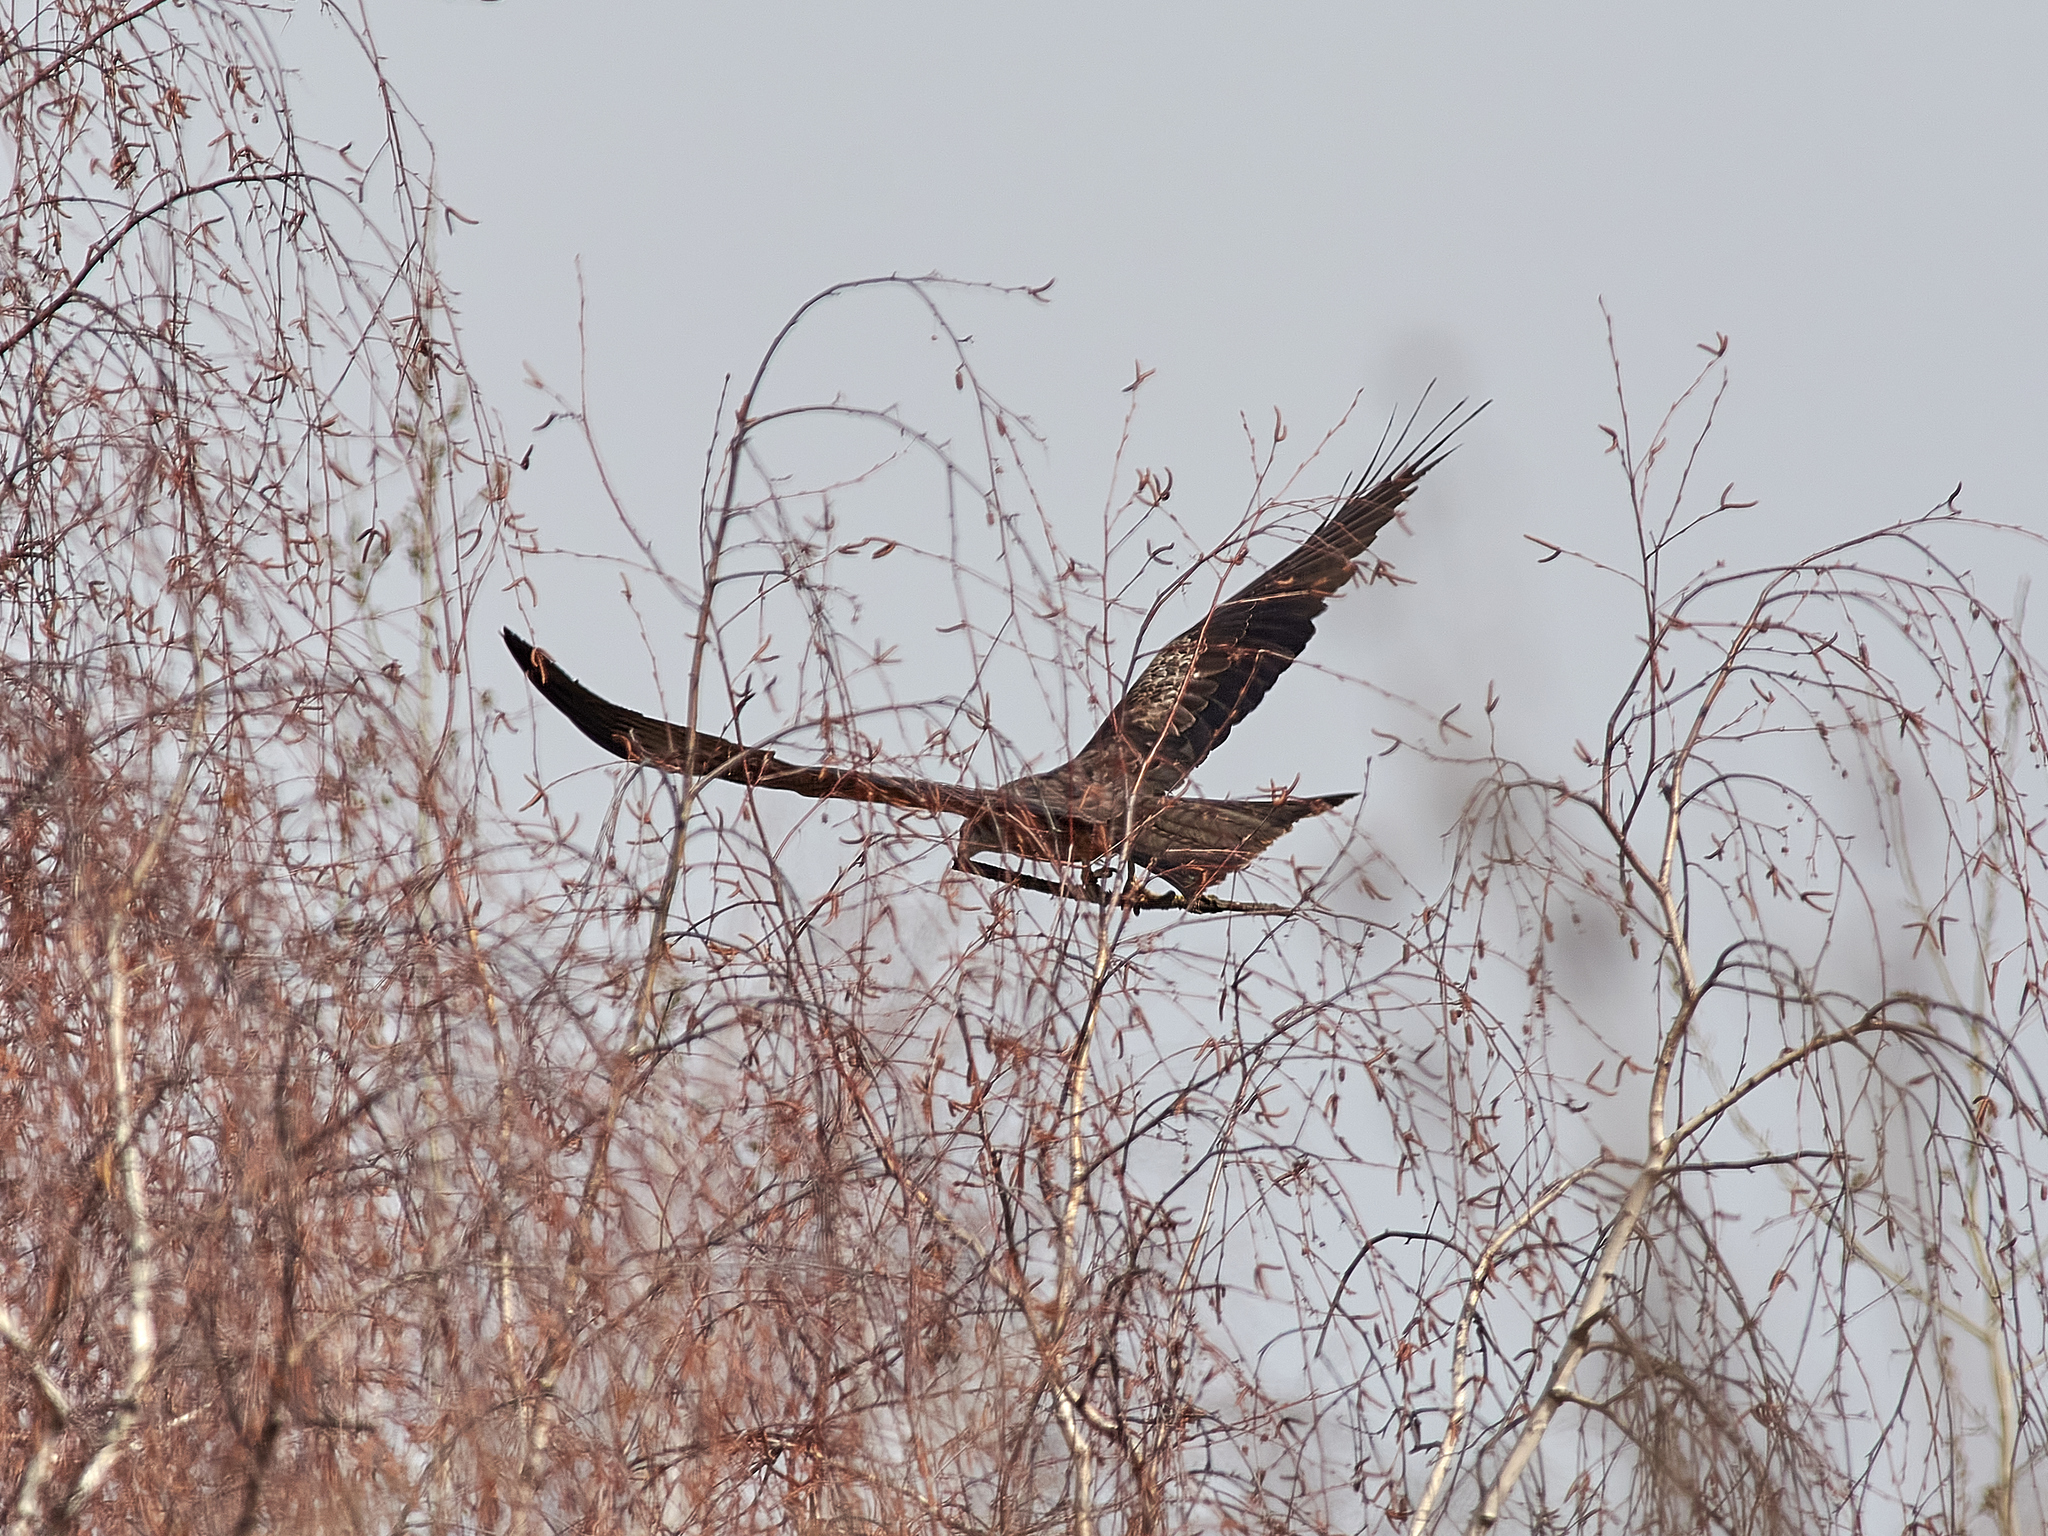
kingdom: Animalia
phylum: Chordata
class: Aves
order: Accipitriformes
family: Accipitridae
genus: Milvus
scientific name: Milvus migrans
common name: Black kite
